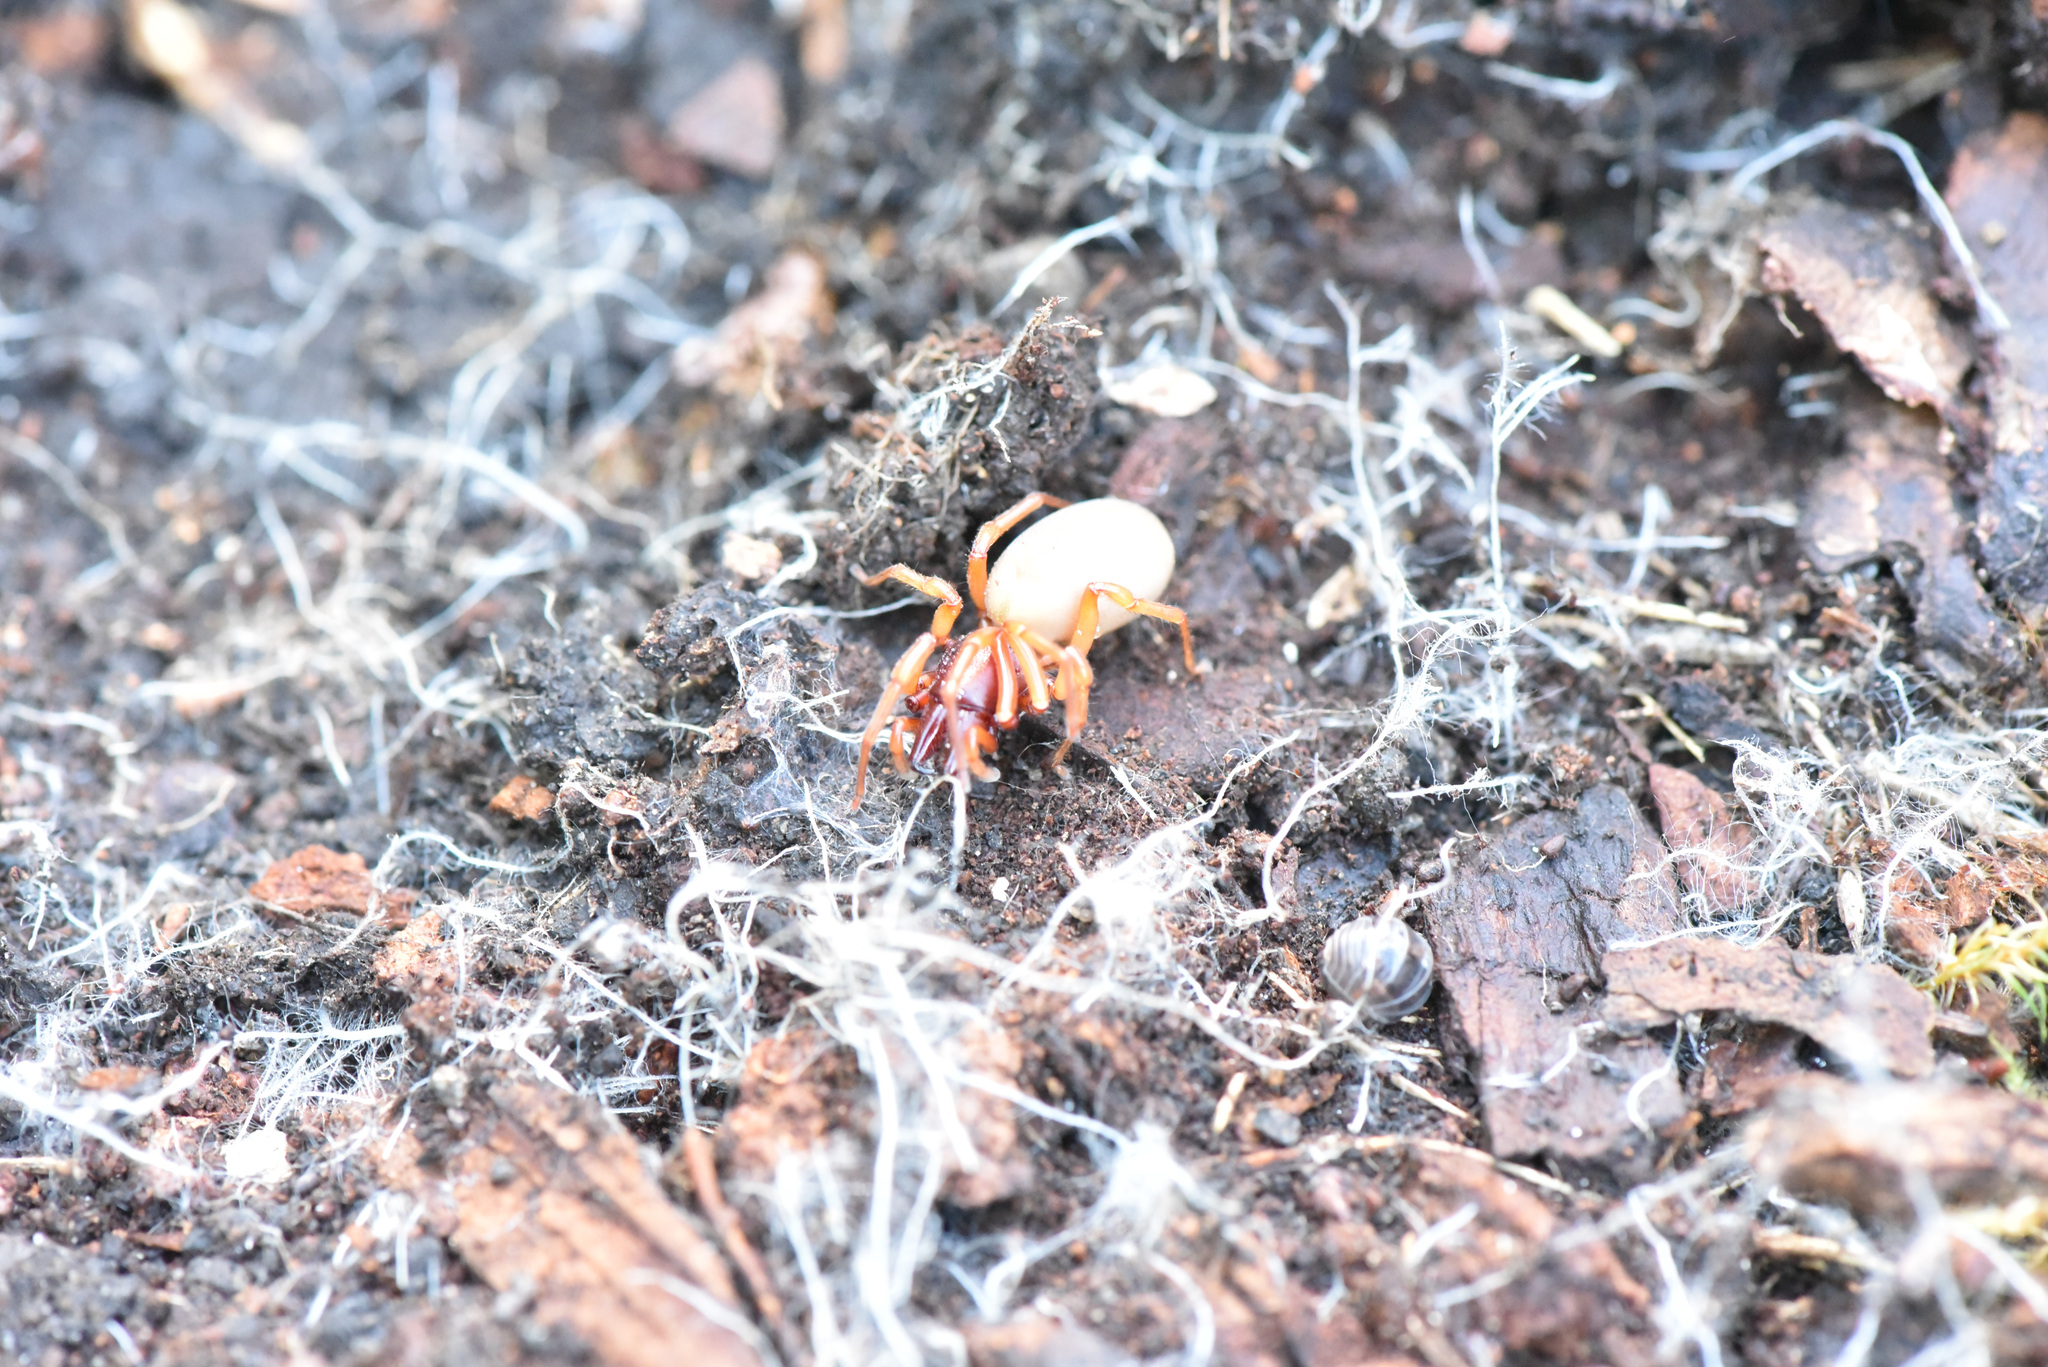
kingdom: Animalia
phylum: Arthropoda
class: Arachnida
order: Araneae
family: Dysderidae
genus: Dysdera
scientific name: Dysdera crocata
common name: Woodlouse spider
